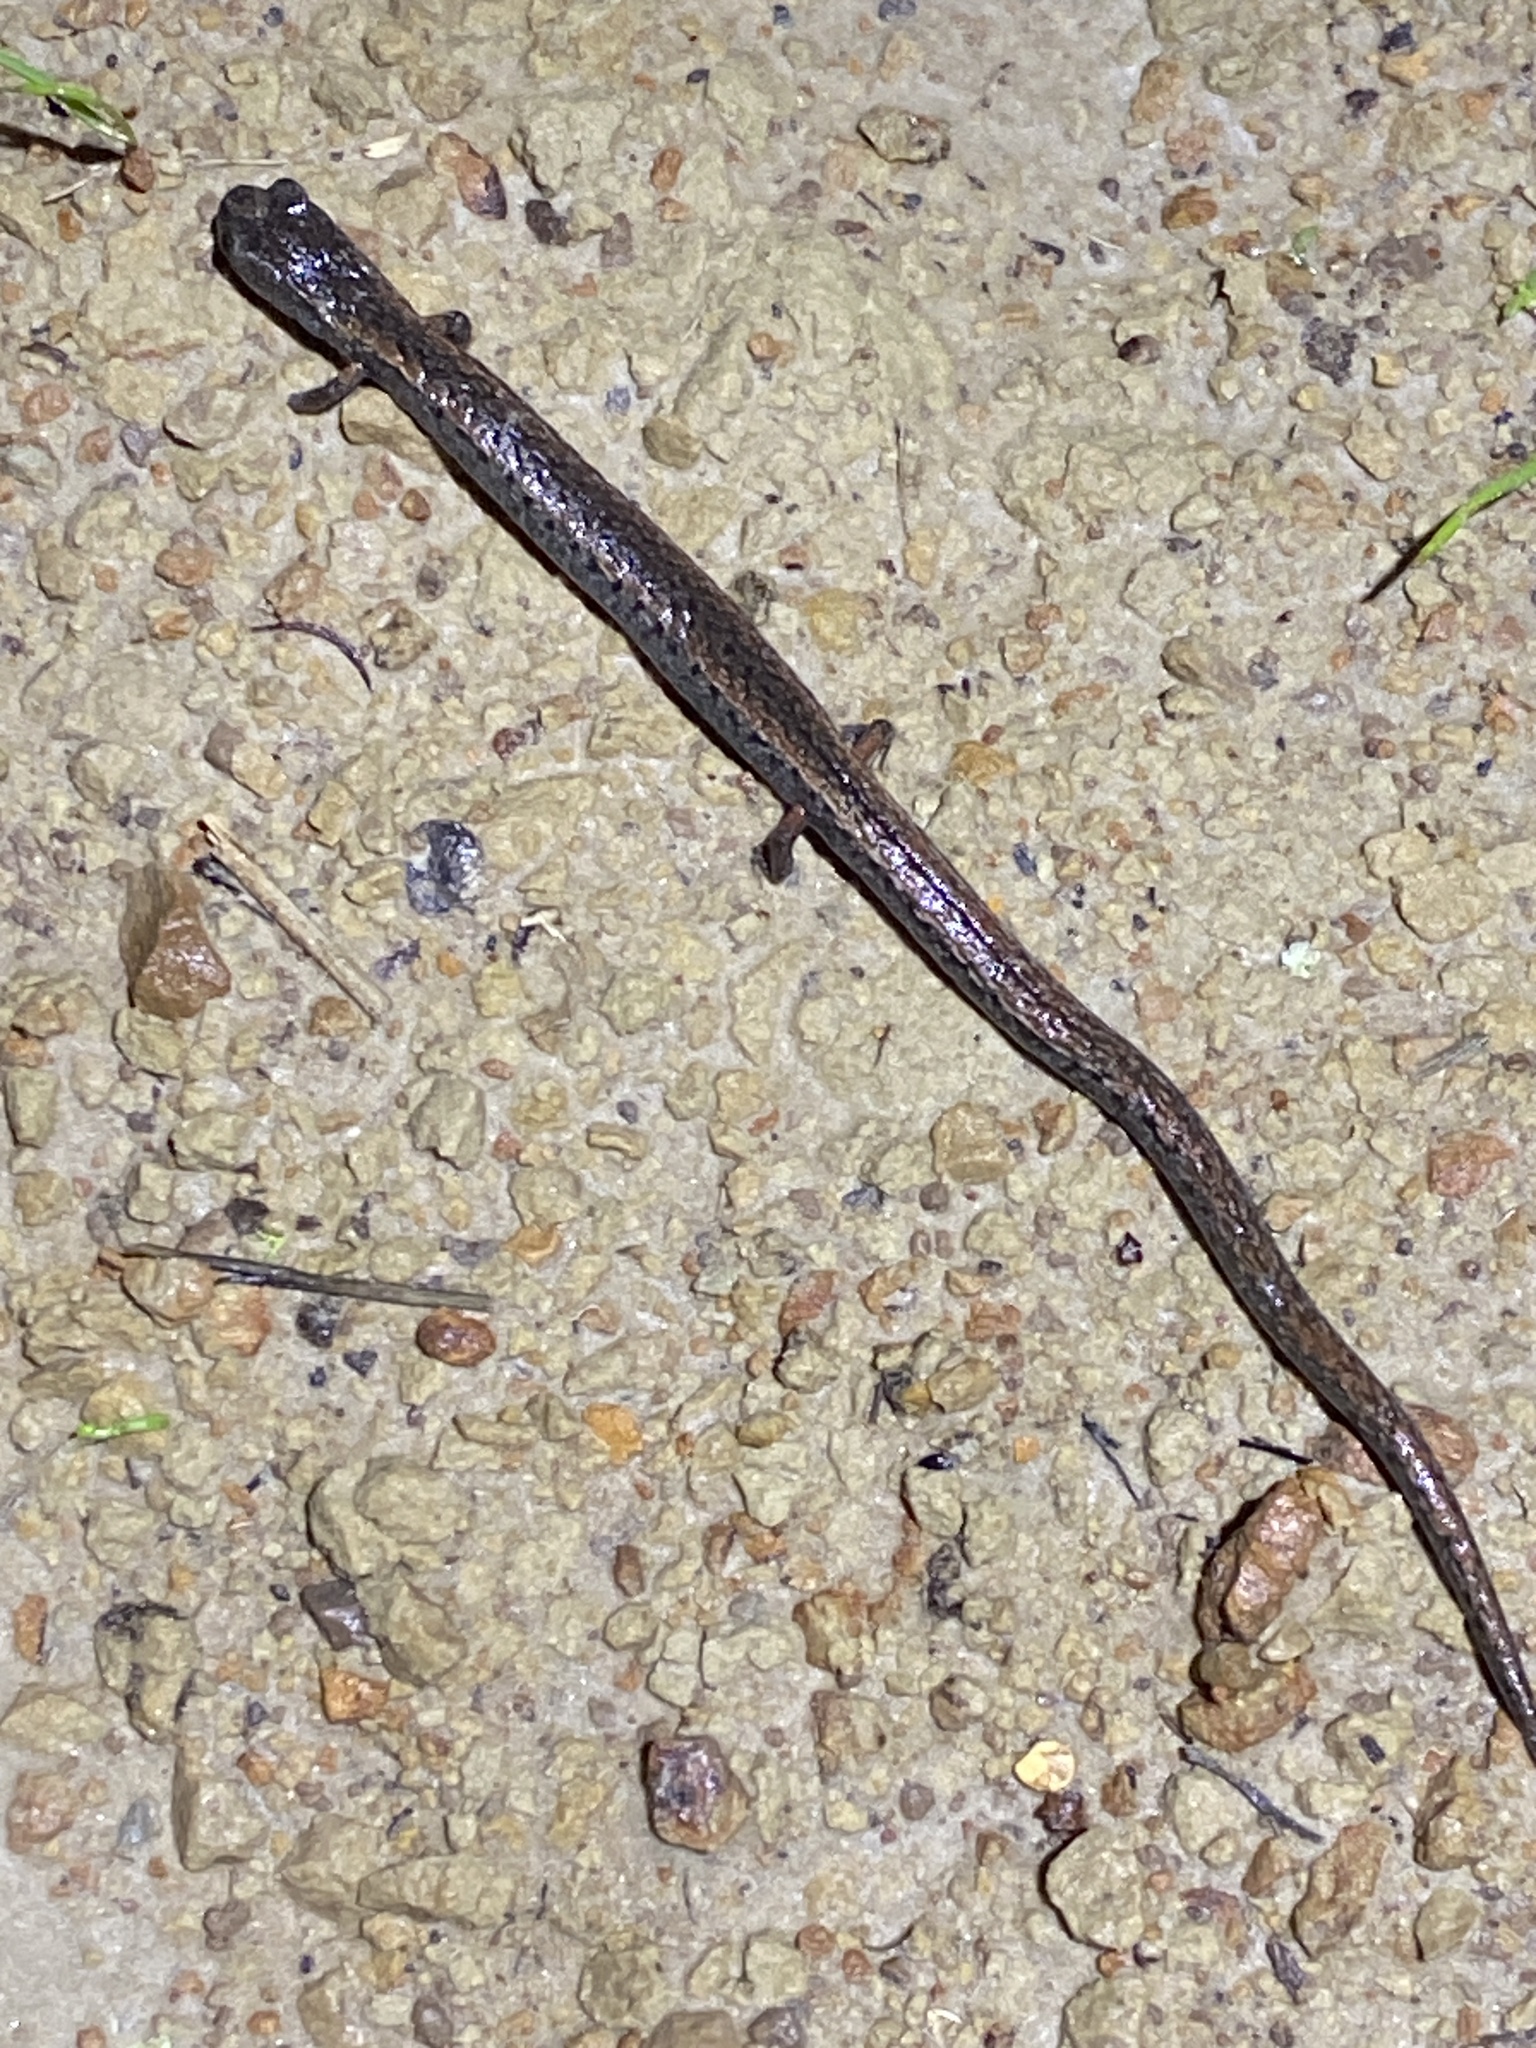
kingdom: Animalia
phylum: Chordata
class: Amphibia
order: Caudata
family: Plethodontidae
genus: Batrachoseps
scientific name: Batrachoseps attenuatus
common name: California slender salamander
